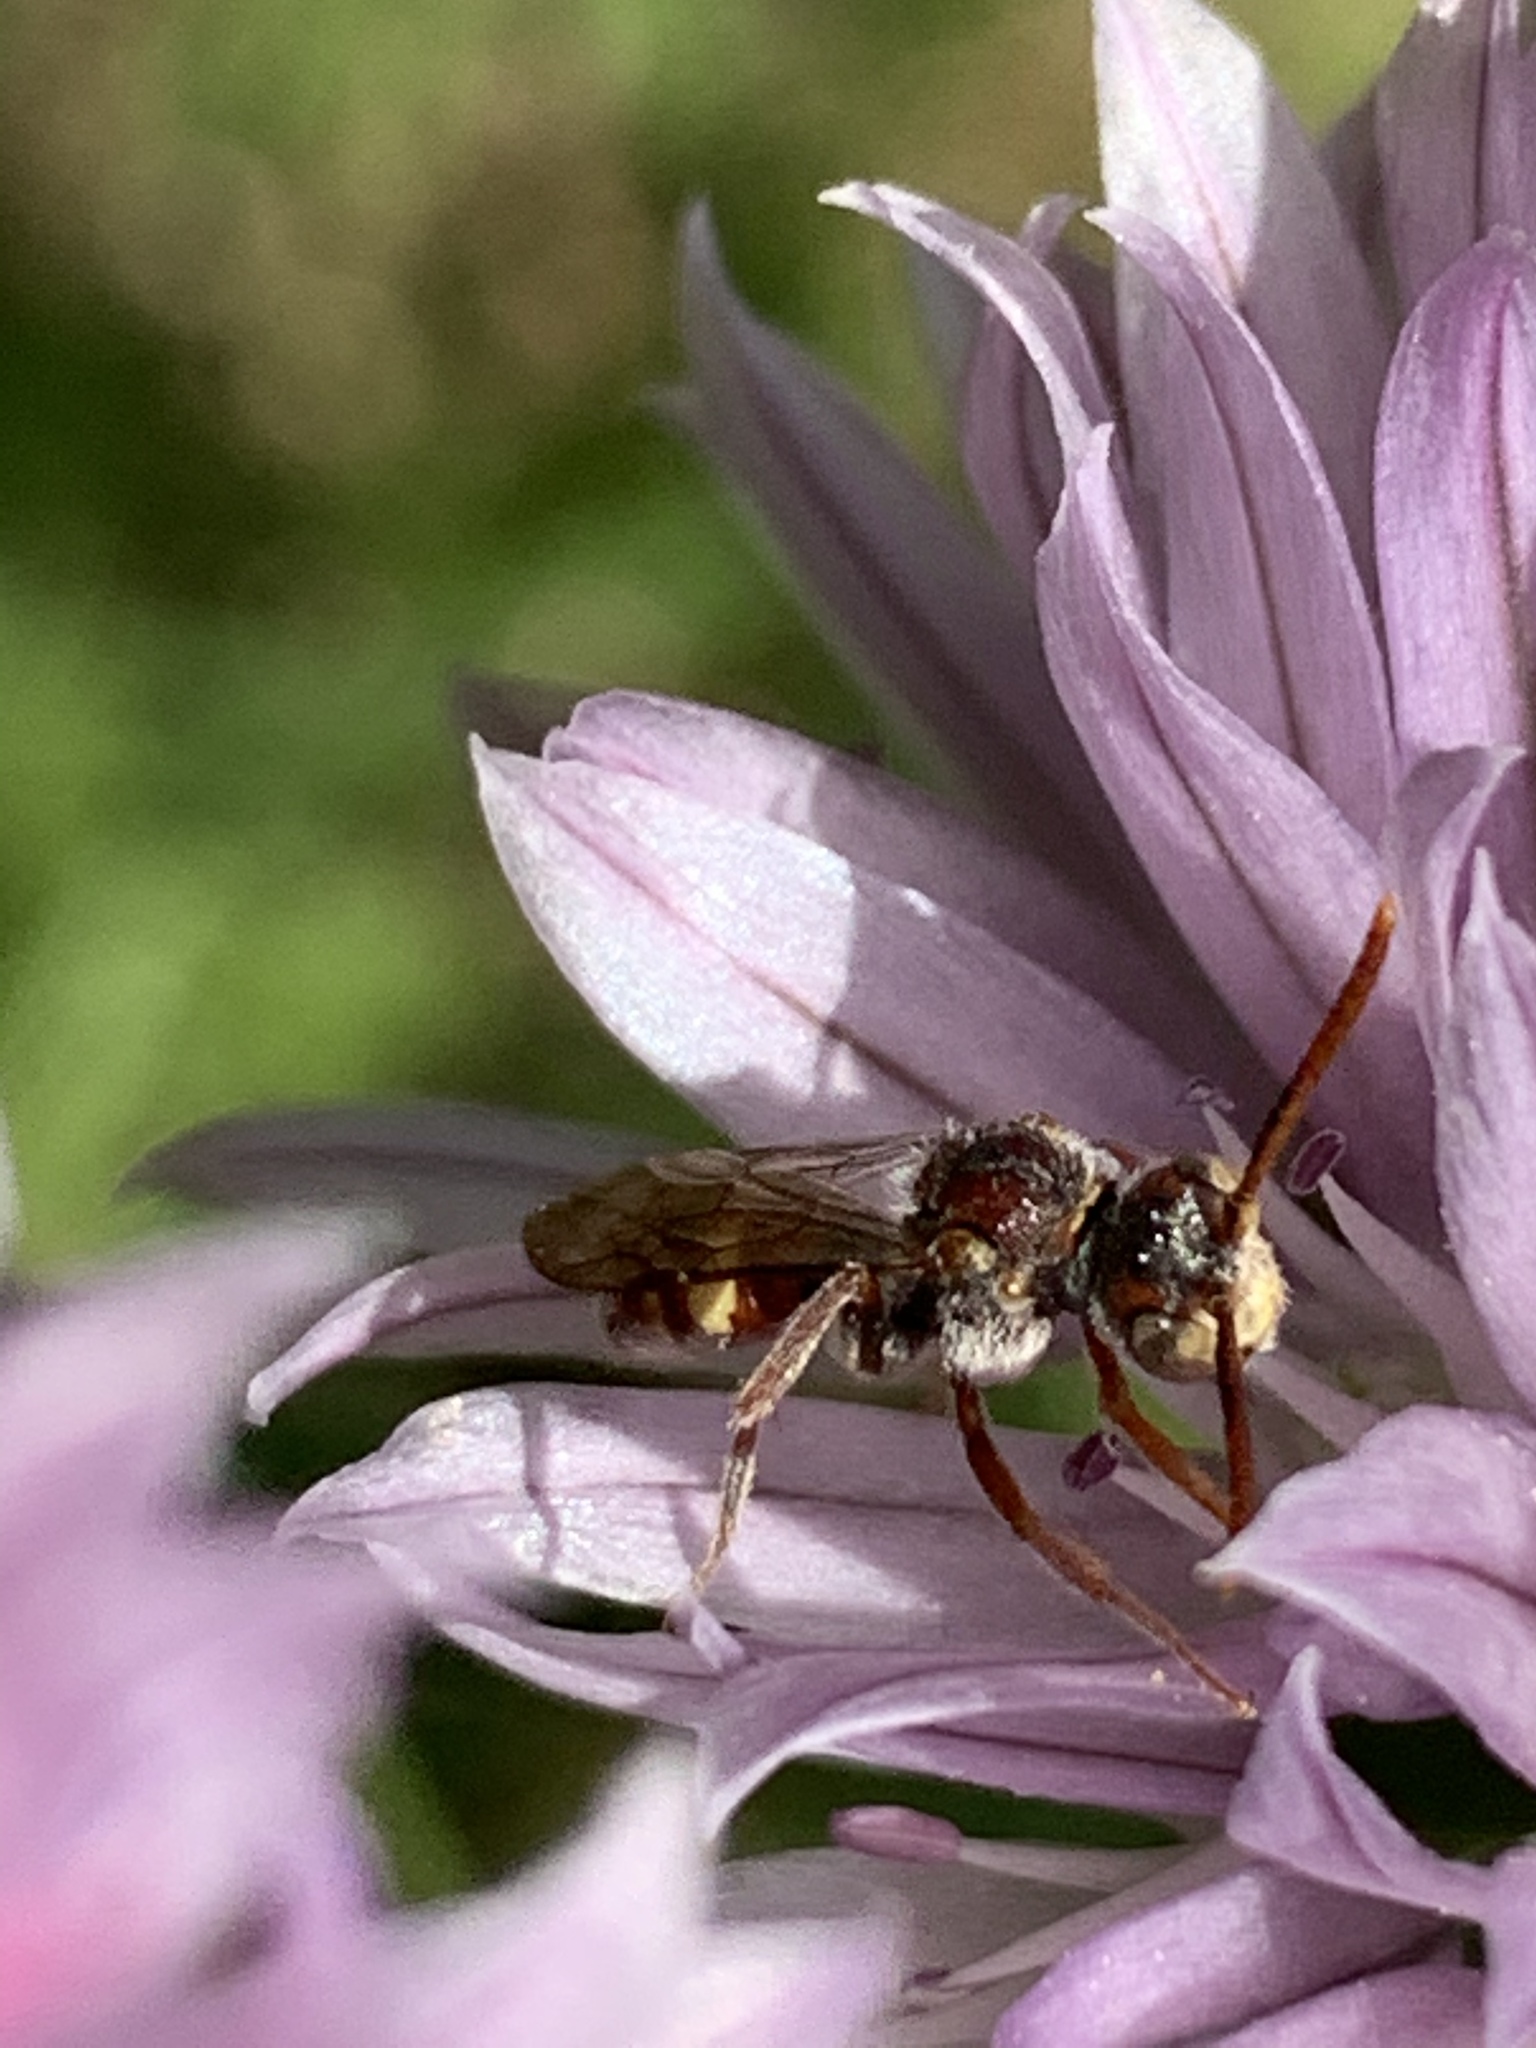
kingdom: Animalia
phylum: Arthropoda
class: Insecta
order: Hymenoptera
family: Apidae
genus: Nomada
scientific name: Nomada
